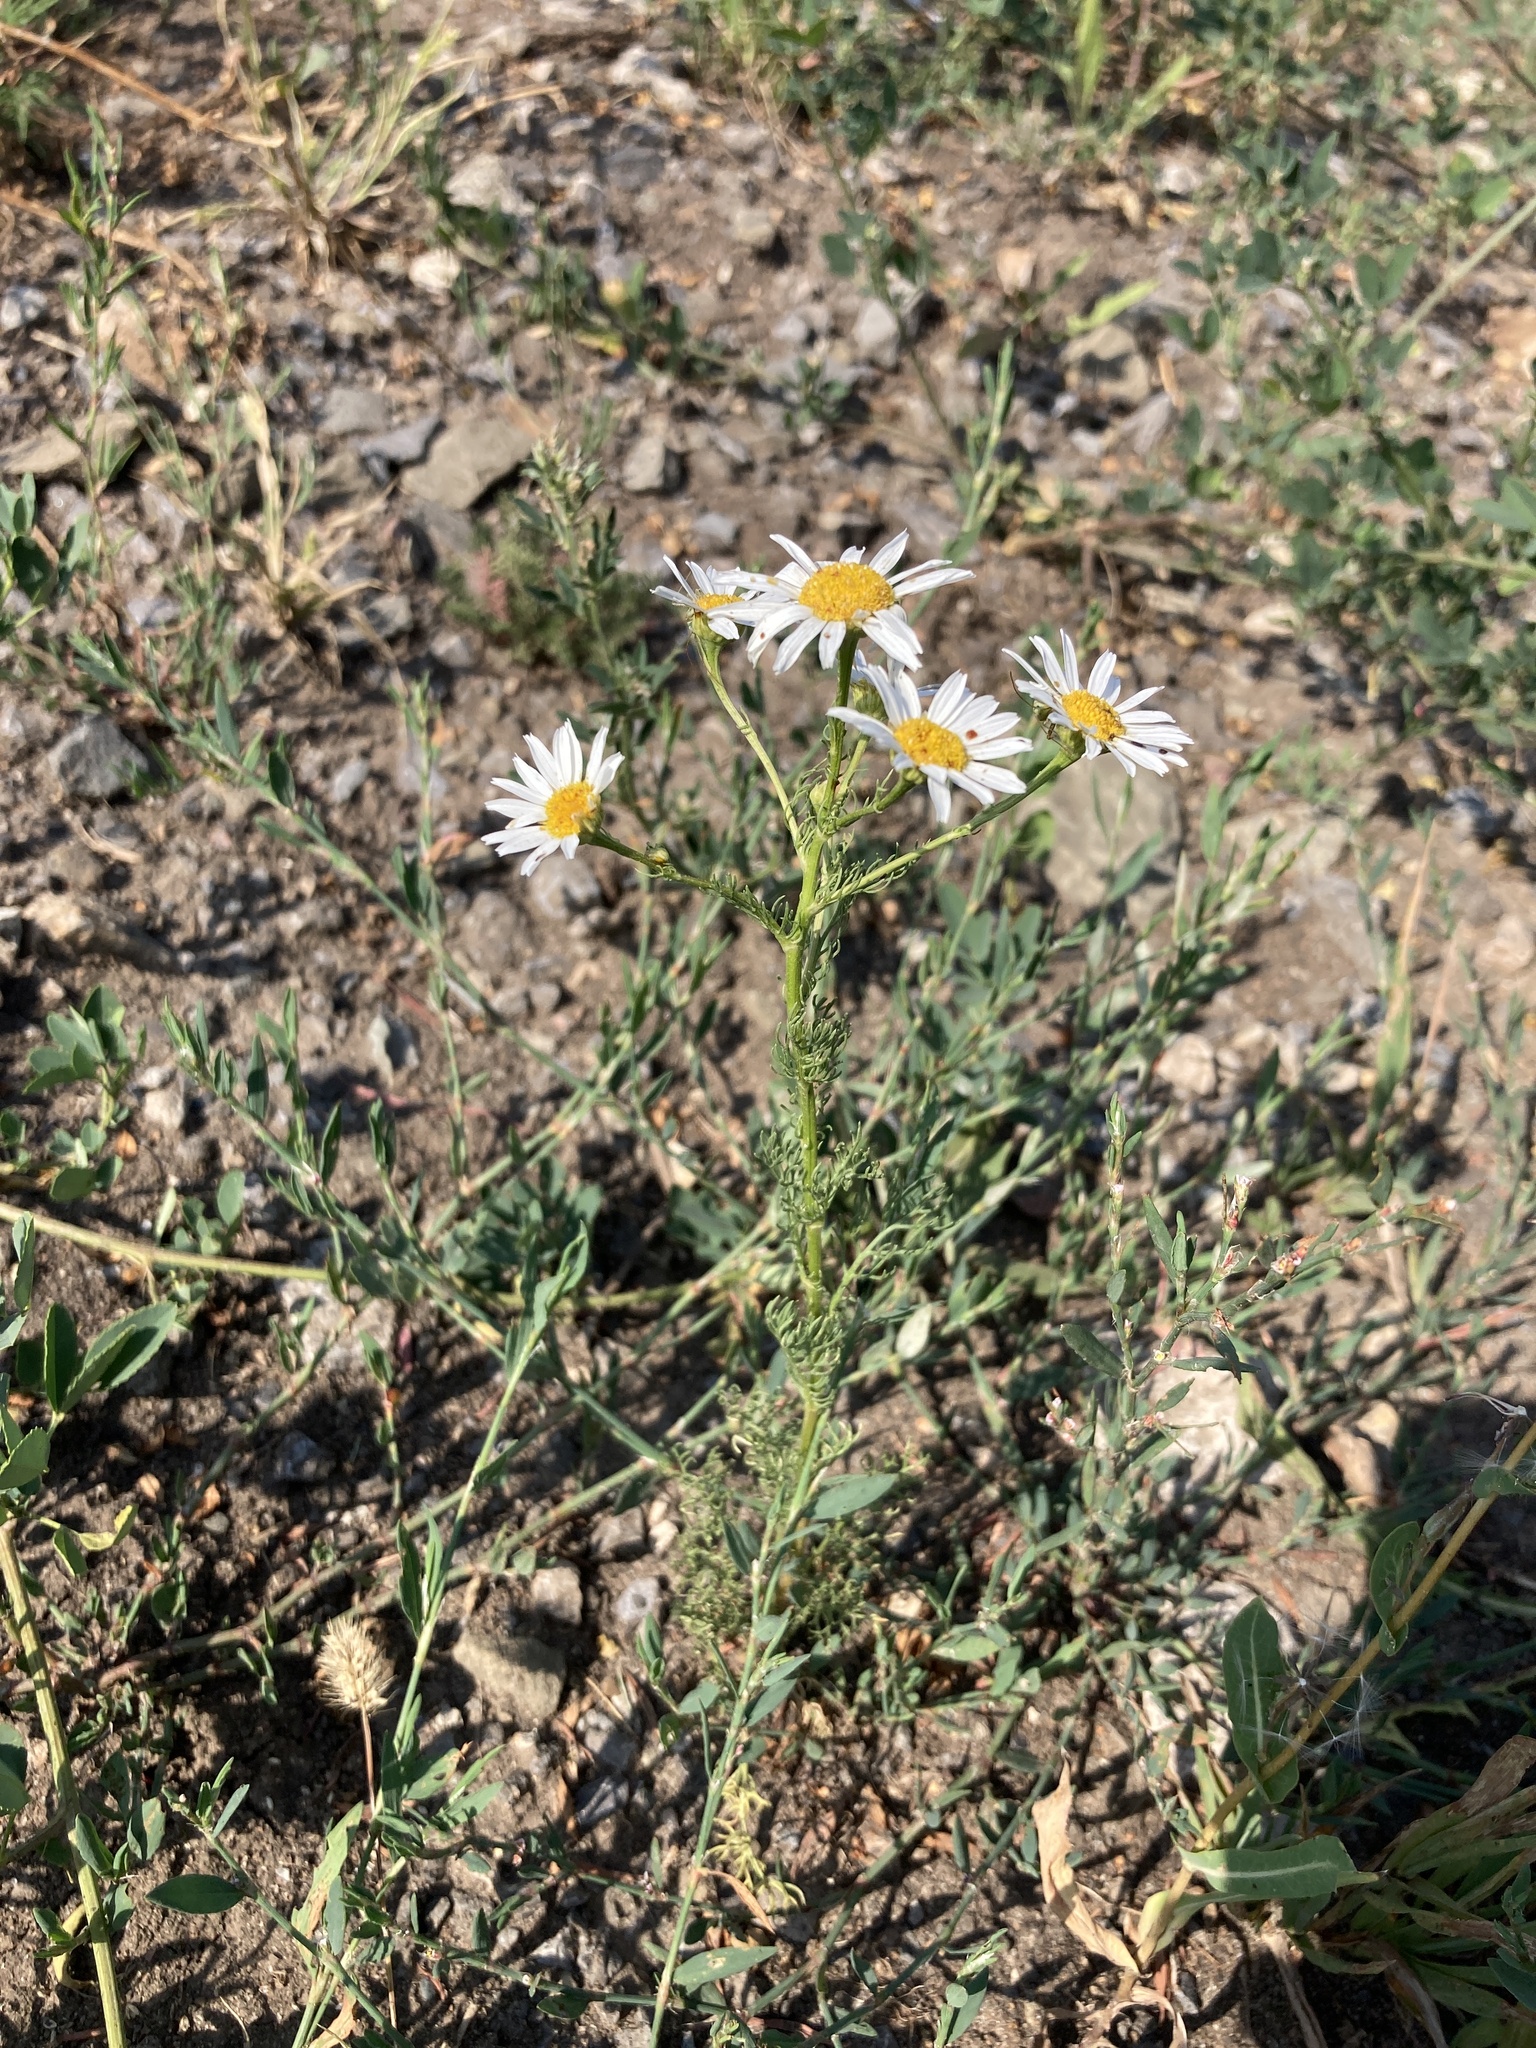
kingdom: Plantae
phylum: Tracheophyta
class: Magnoliopsida
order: Asterales
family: Asteraceae
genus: Tripleurospermum
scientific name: Tripleurospermum inodorum
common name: Scentless mayweed
